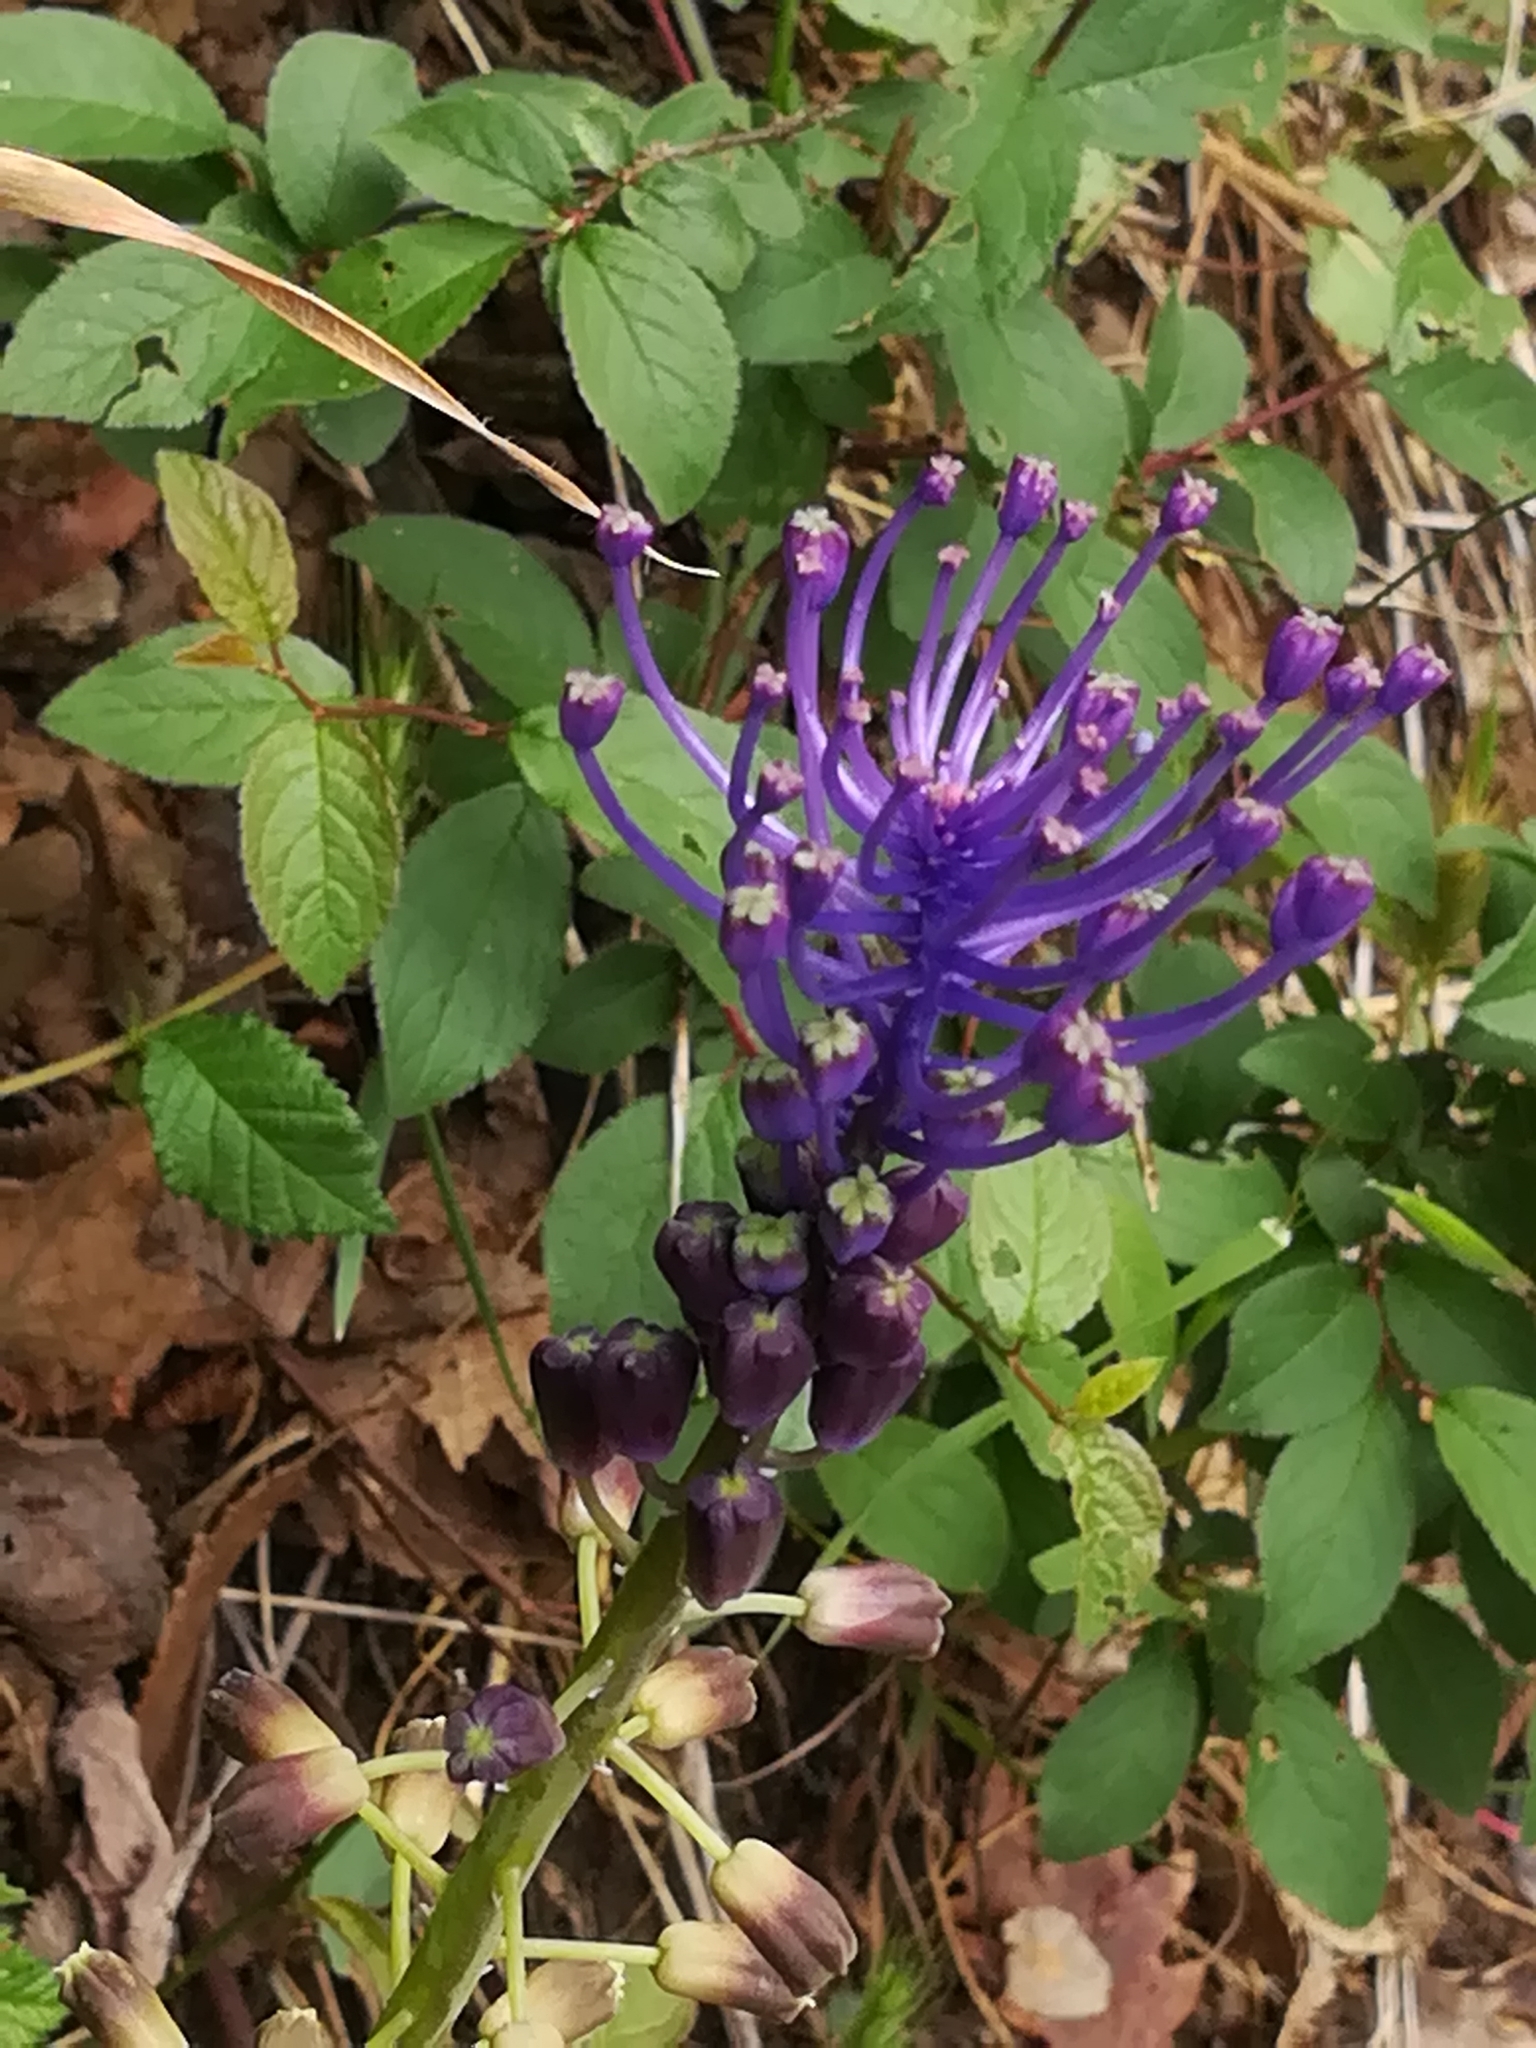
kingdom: Plantae
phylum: Tracheophyta
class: Liliopsida
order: Asparagales
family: Asparagaceae
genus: Muscari
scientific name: Muscari comosum
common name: Tassel hyacinth
